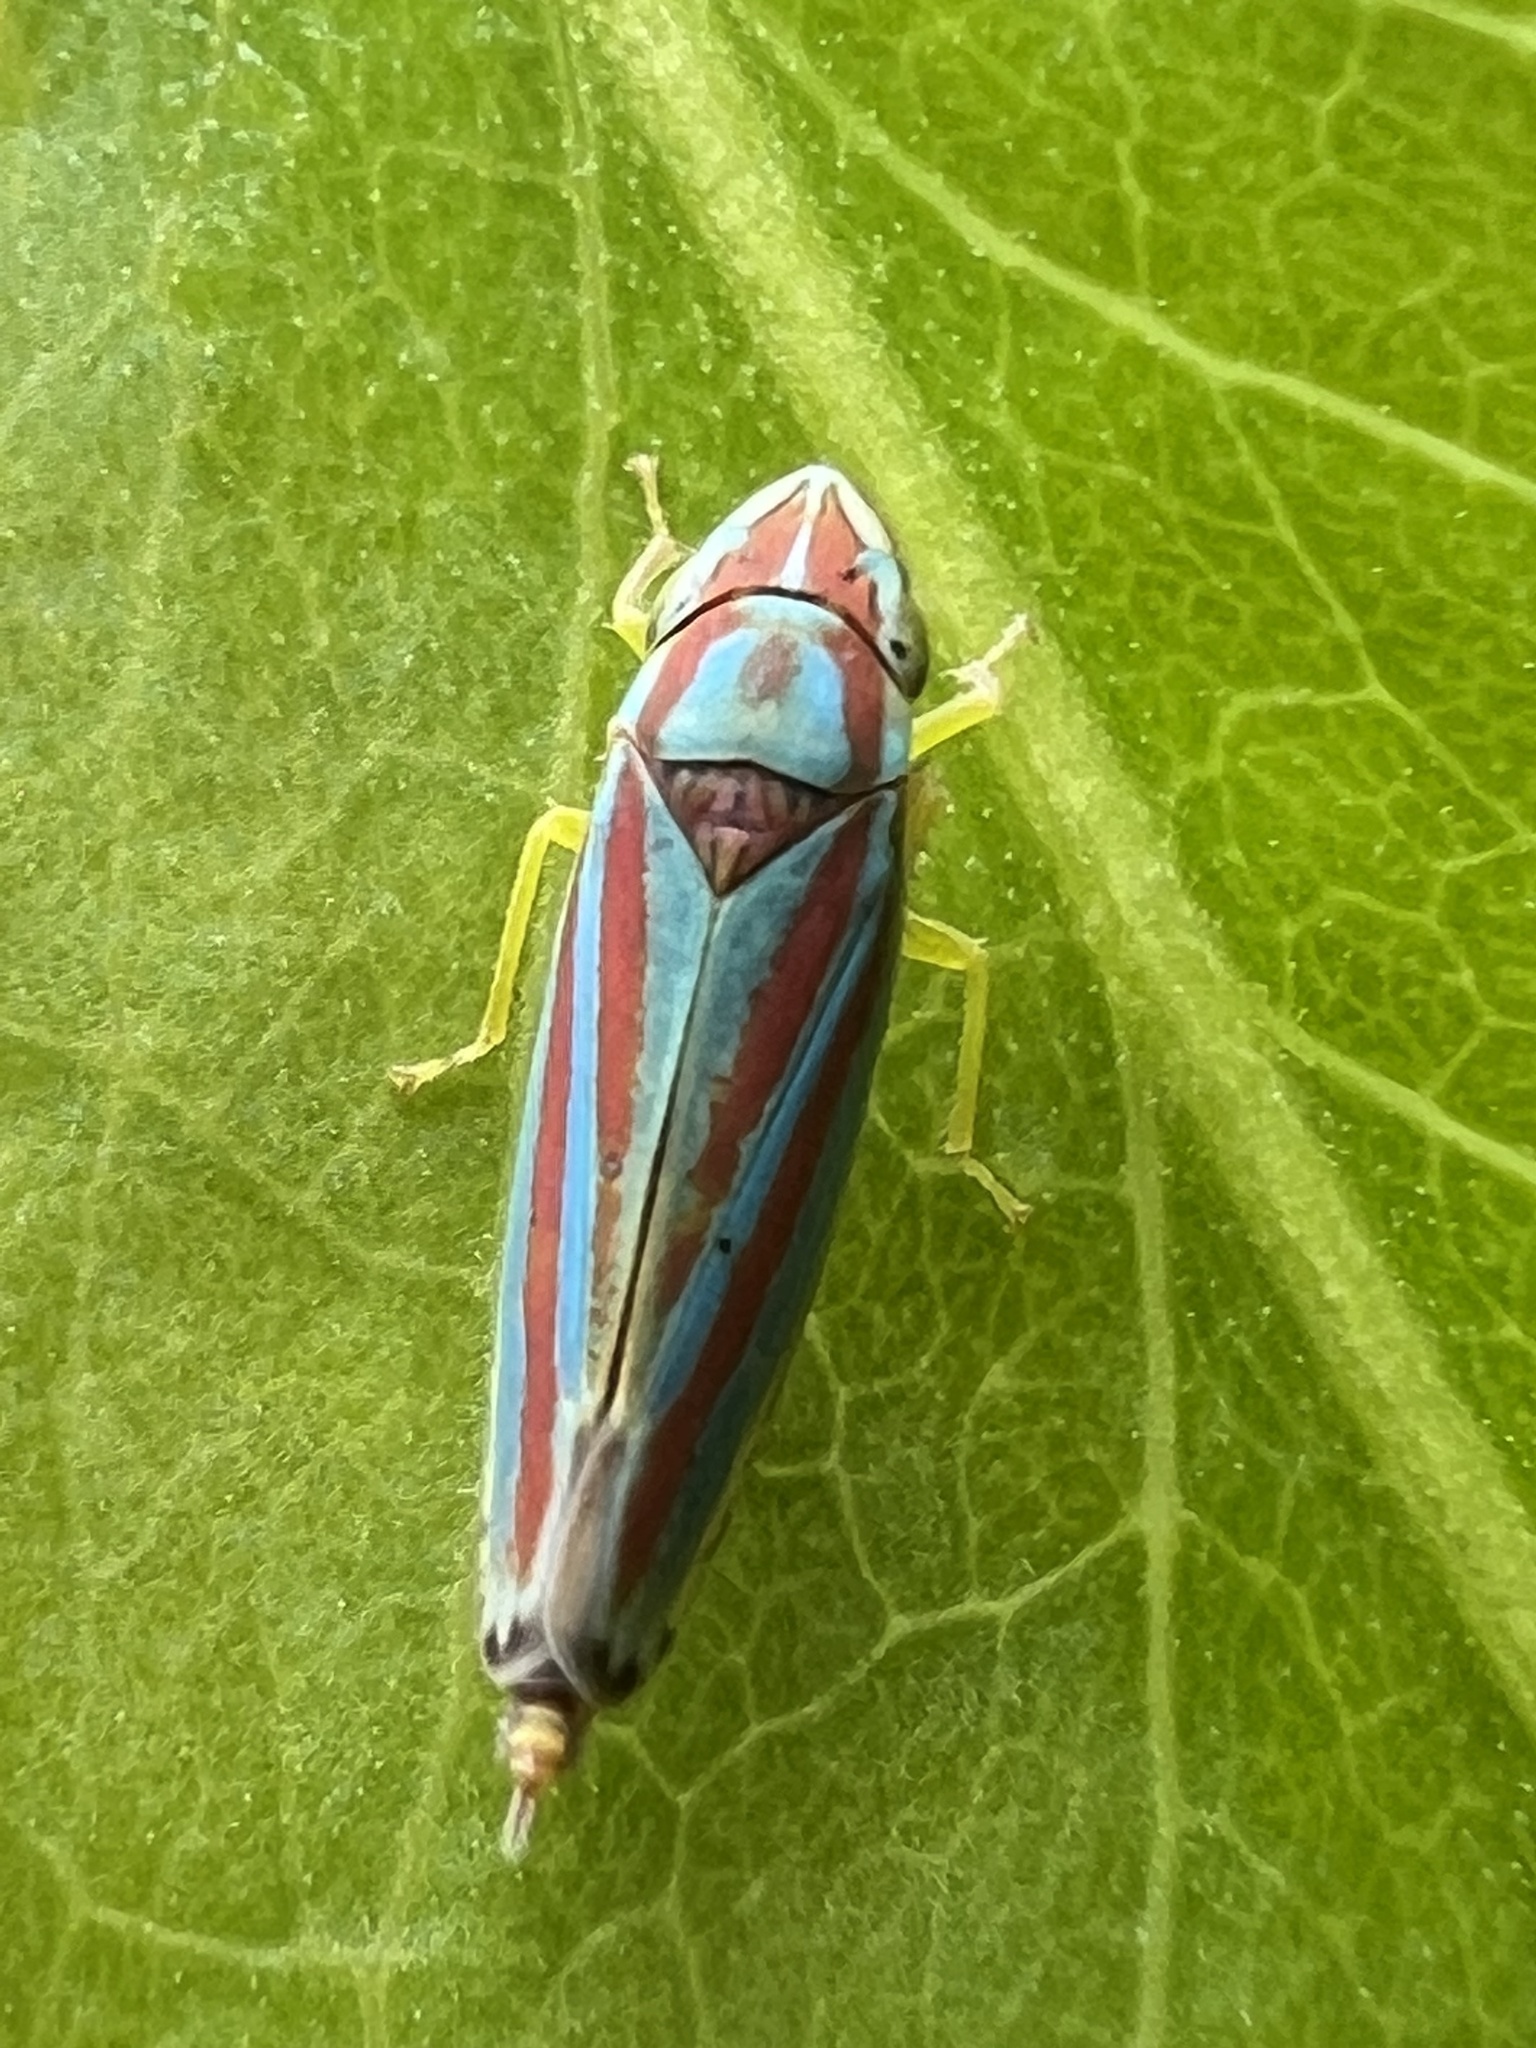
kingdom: Animalia
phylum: Arthropoda
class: Insecta
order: Hemiptera
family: Cicadellidae
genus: Graphocephala
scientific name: Graphocephala versuta
